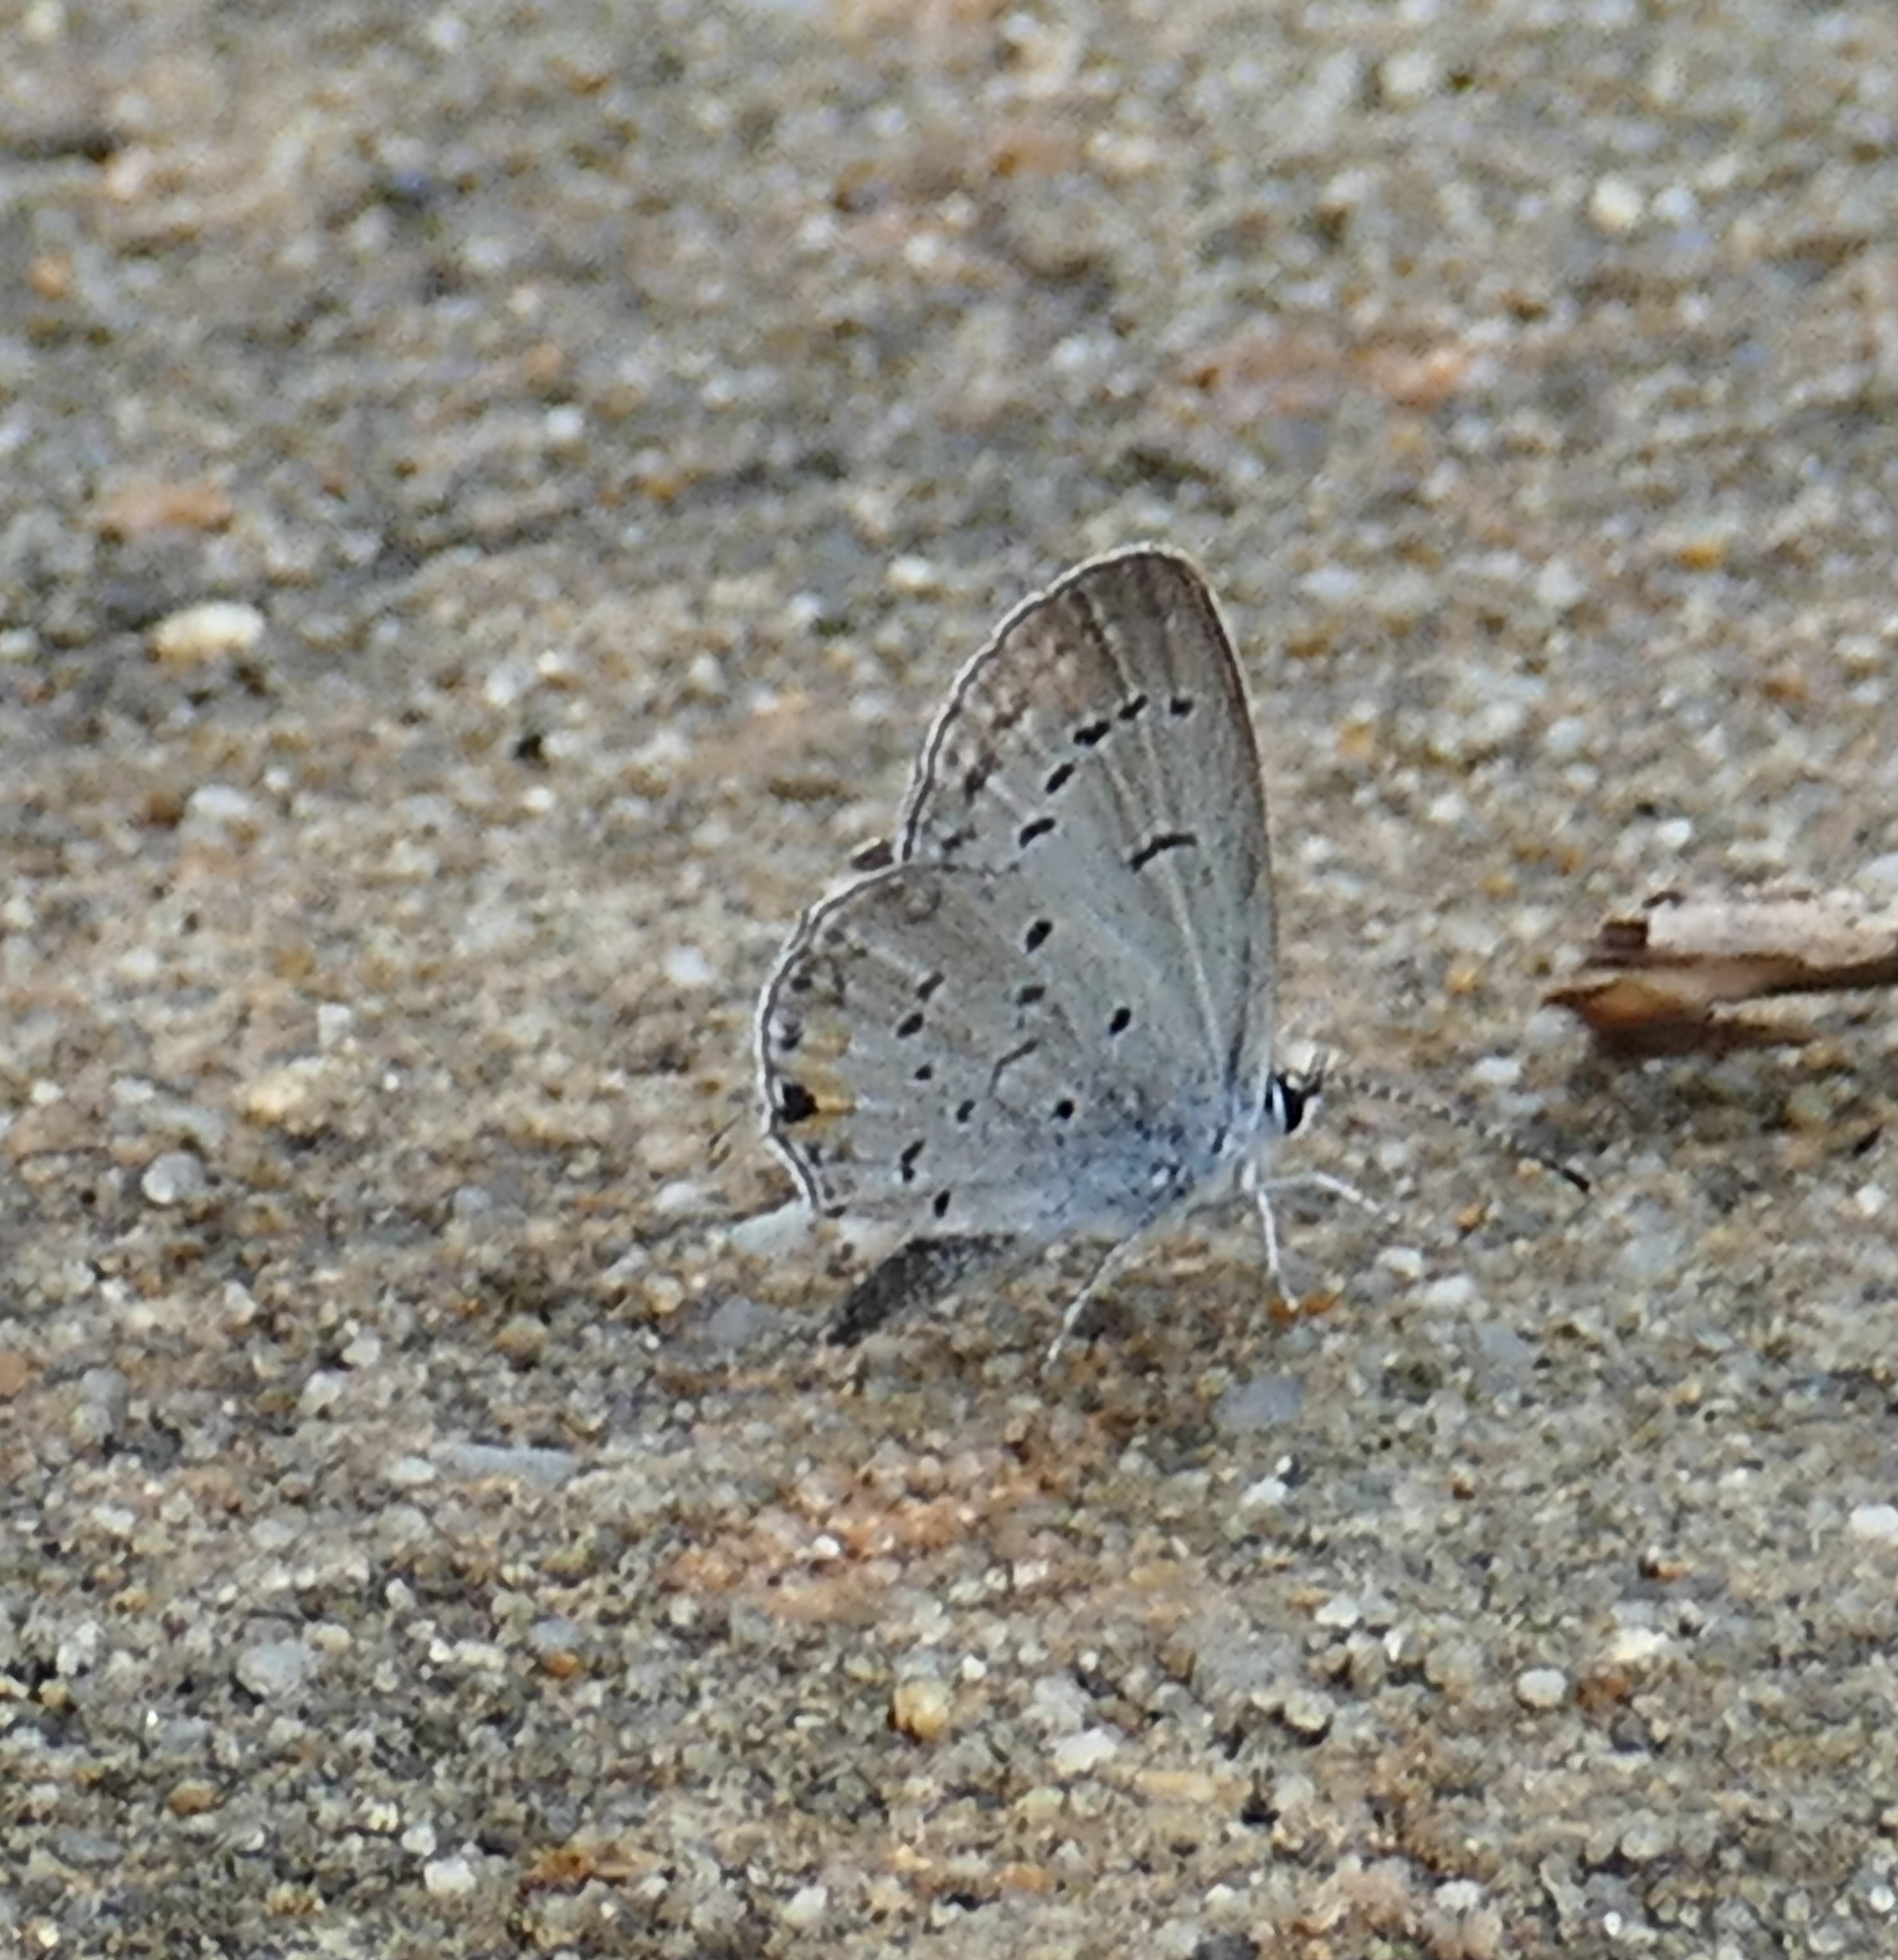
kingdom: Animalia
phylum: Arthropoda
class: Insecta
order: Lepidoptera
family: Lycaenidae
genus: Elkalyce
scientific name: Elkalyce comyntas
